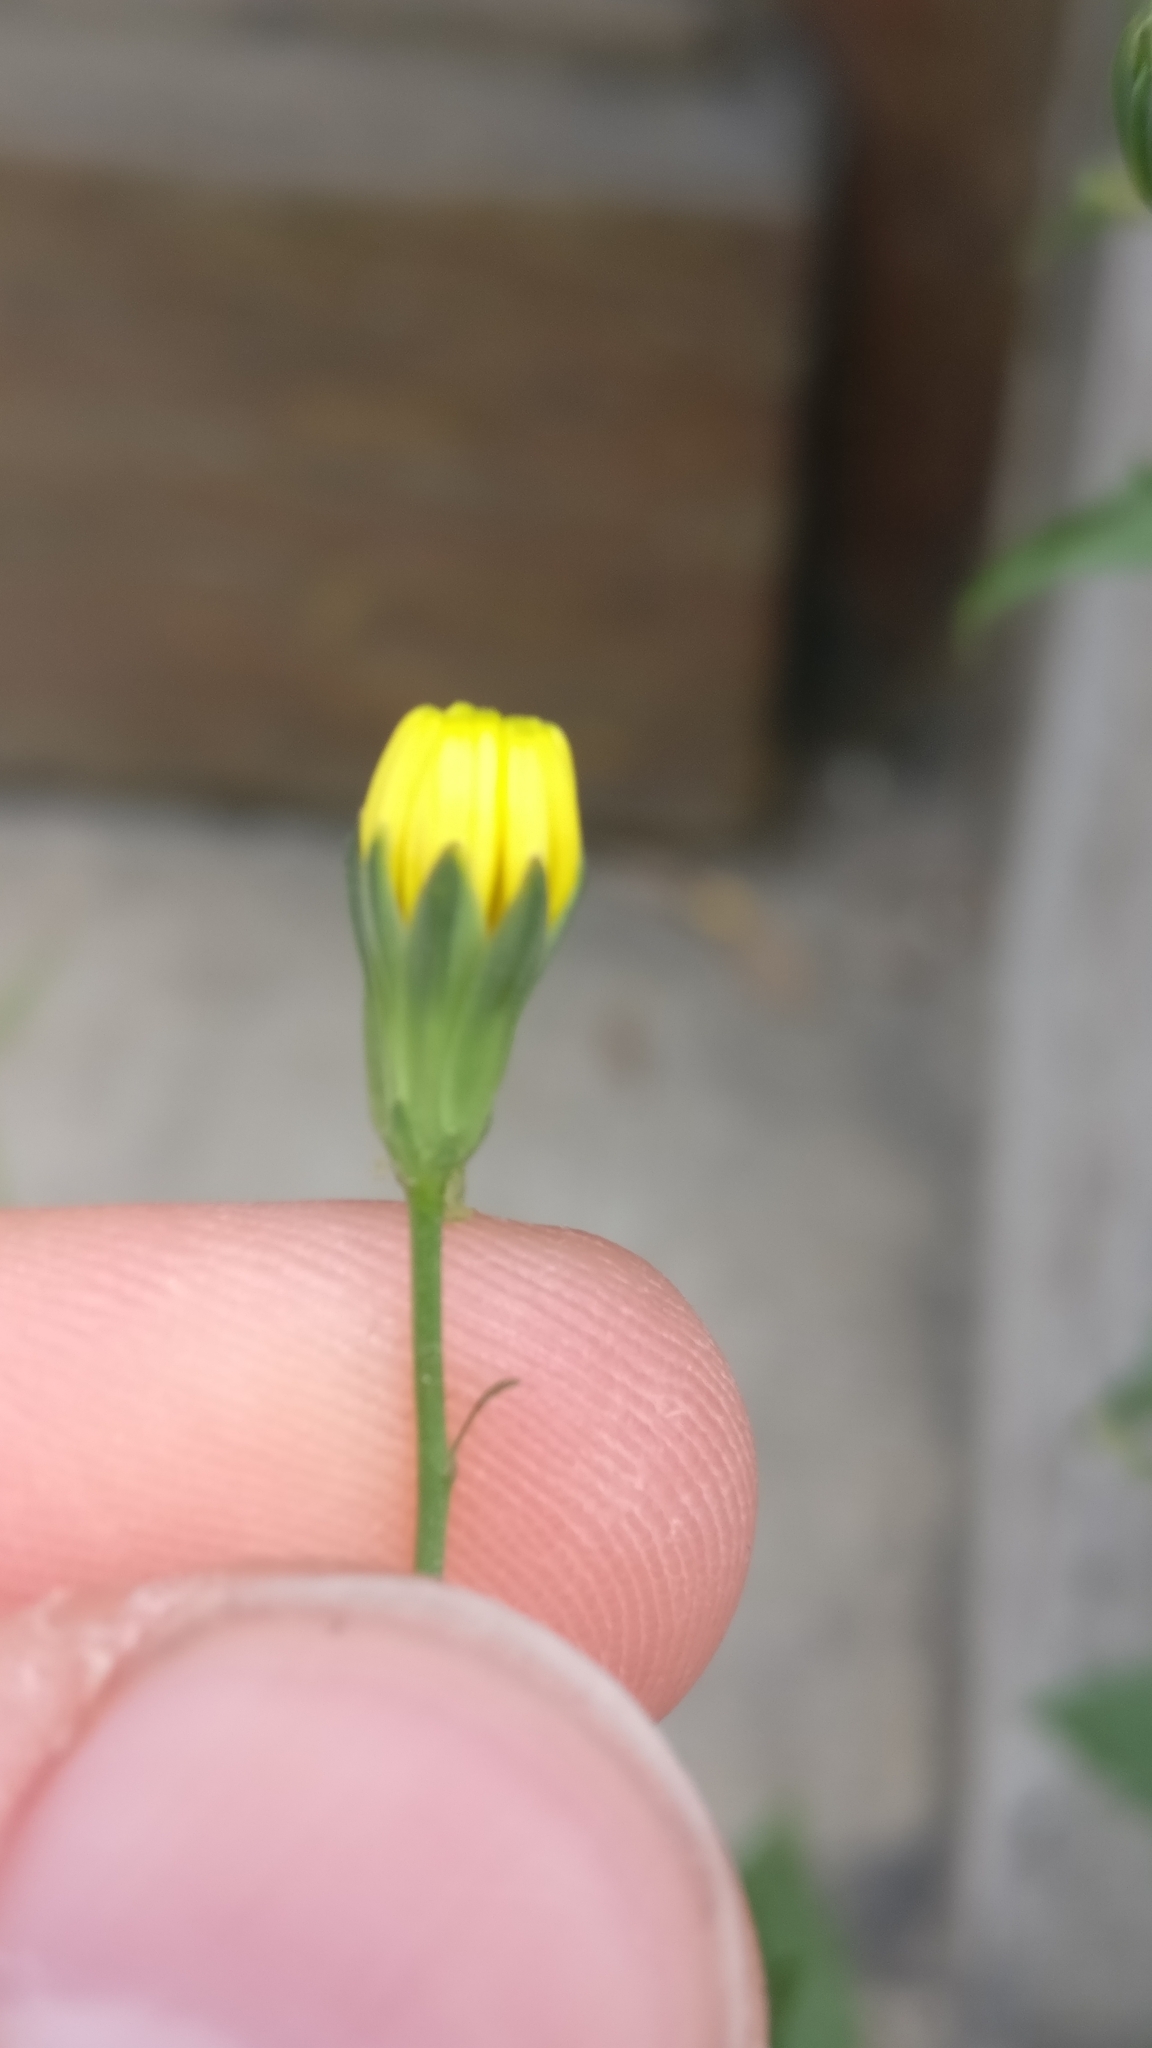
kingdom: Plantae
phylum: Tracheophyta
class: Magnoliopsida
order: Asterales
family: Asteraceae
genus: Lapsana
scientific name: Lapsana communis
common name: Nipplewort
